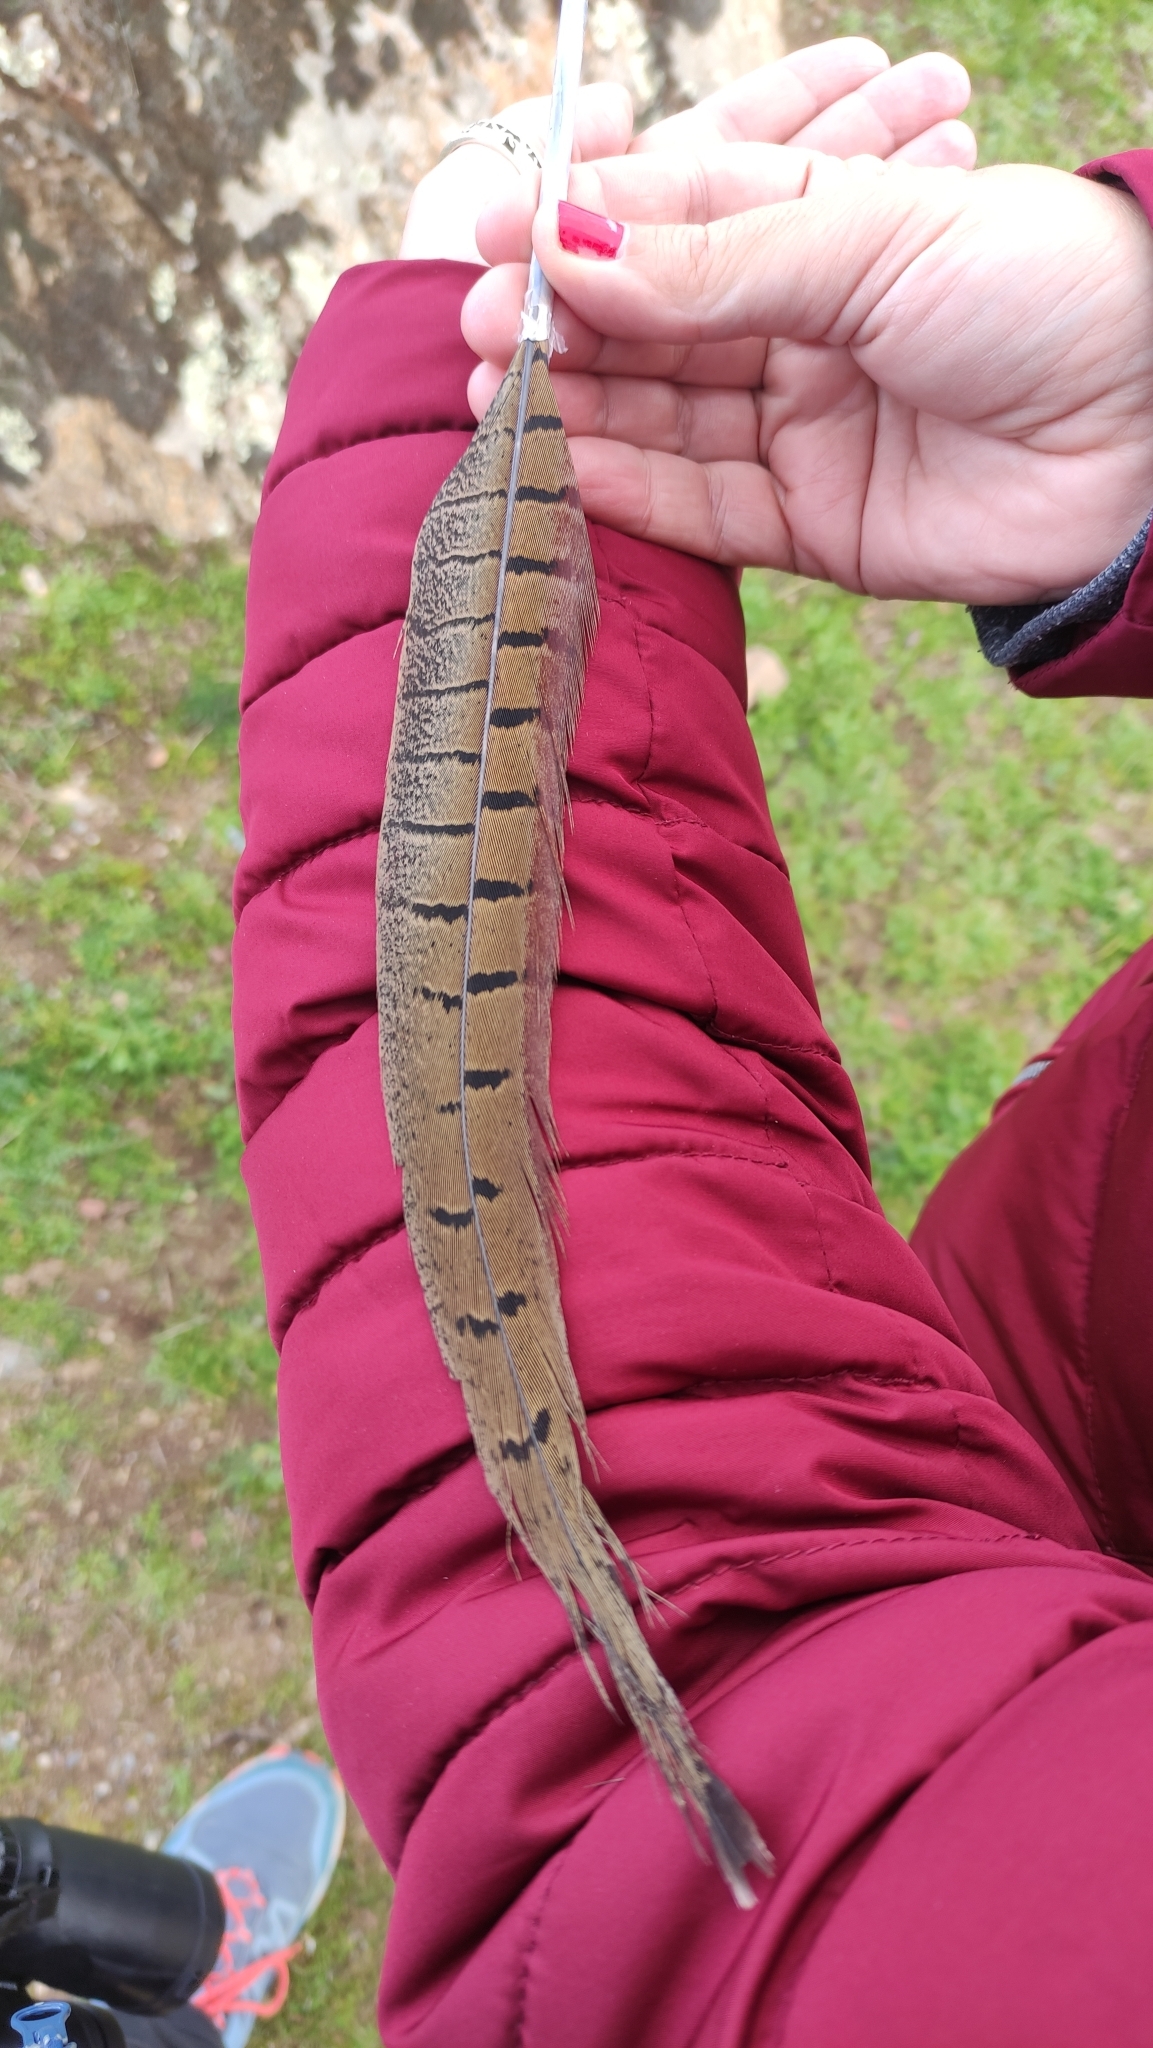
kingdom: Animalia
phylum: Chordata
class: Aves
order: Galliformes
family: Phasianidae
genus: Phasianus
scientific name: Phasianus colchicus
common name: Common pheasant
